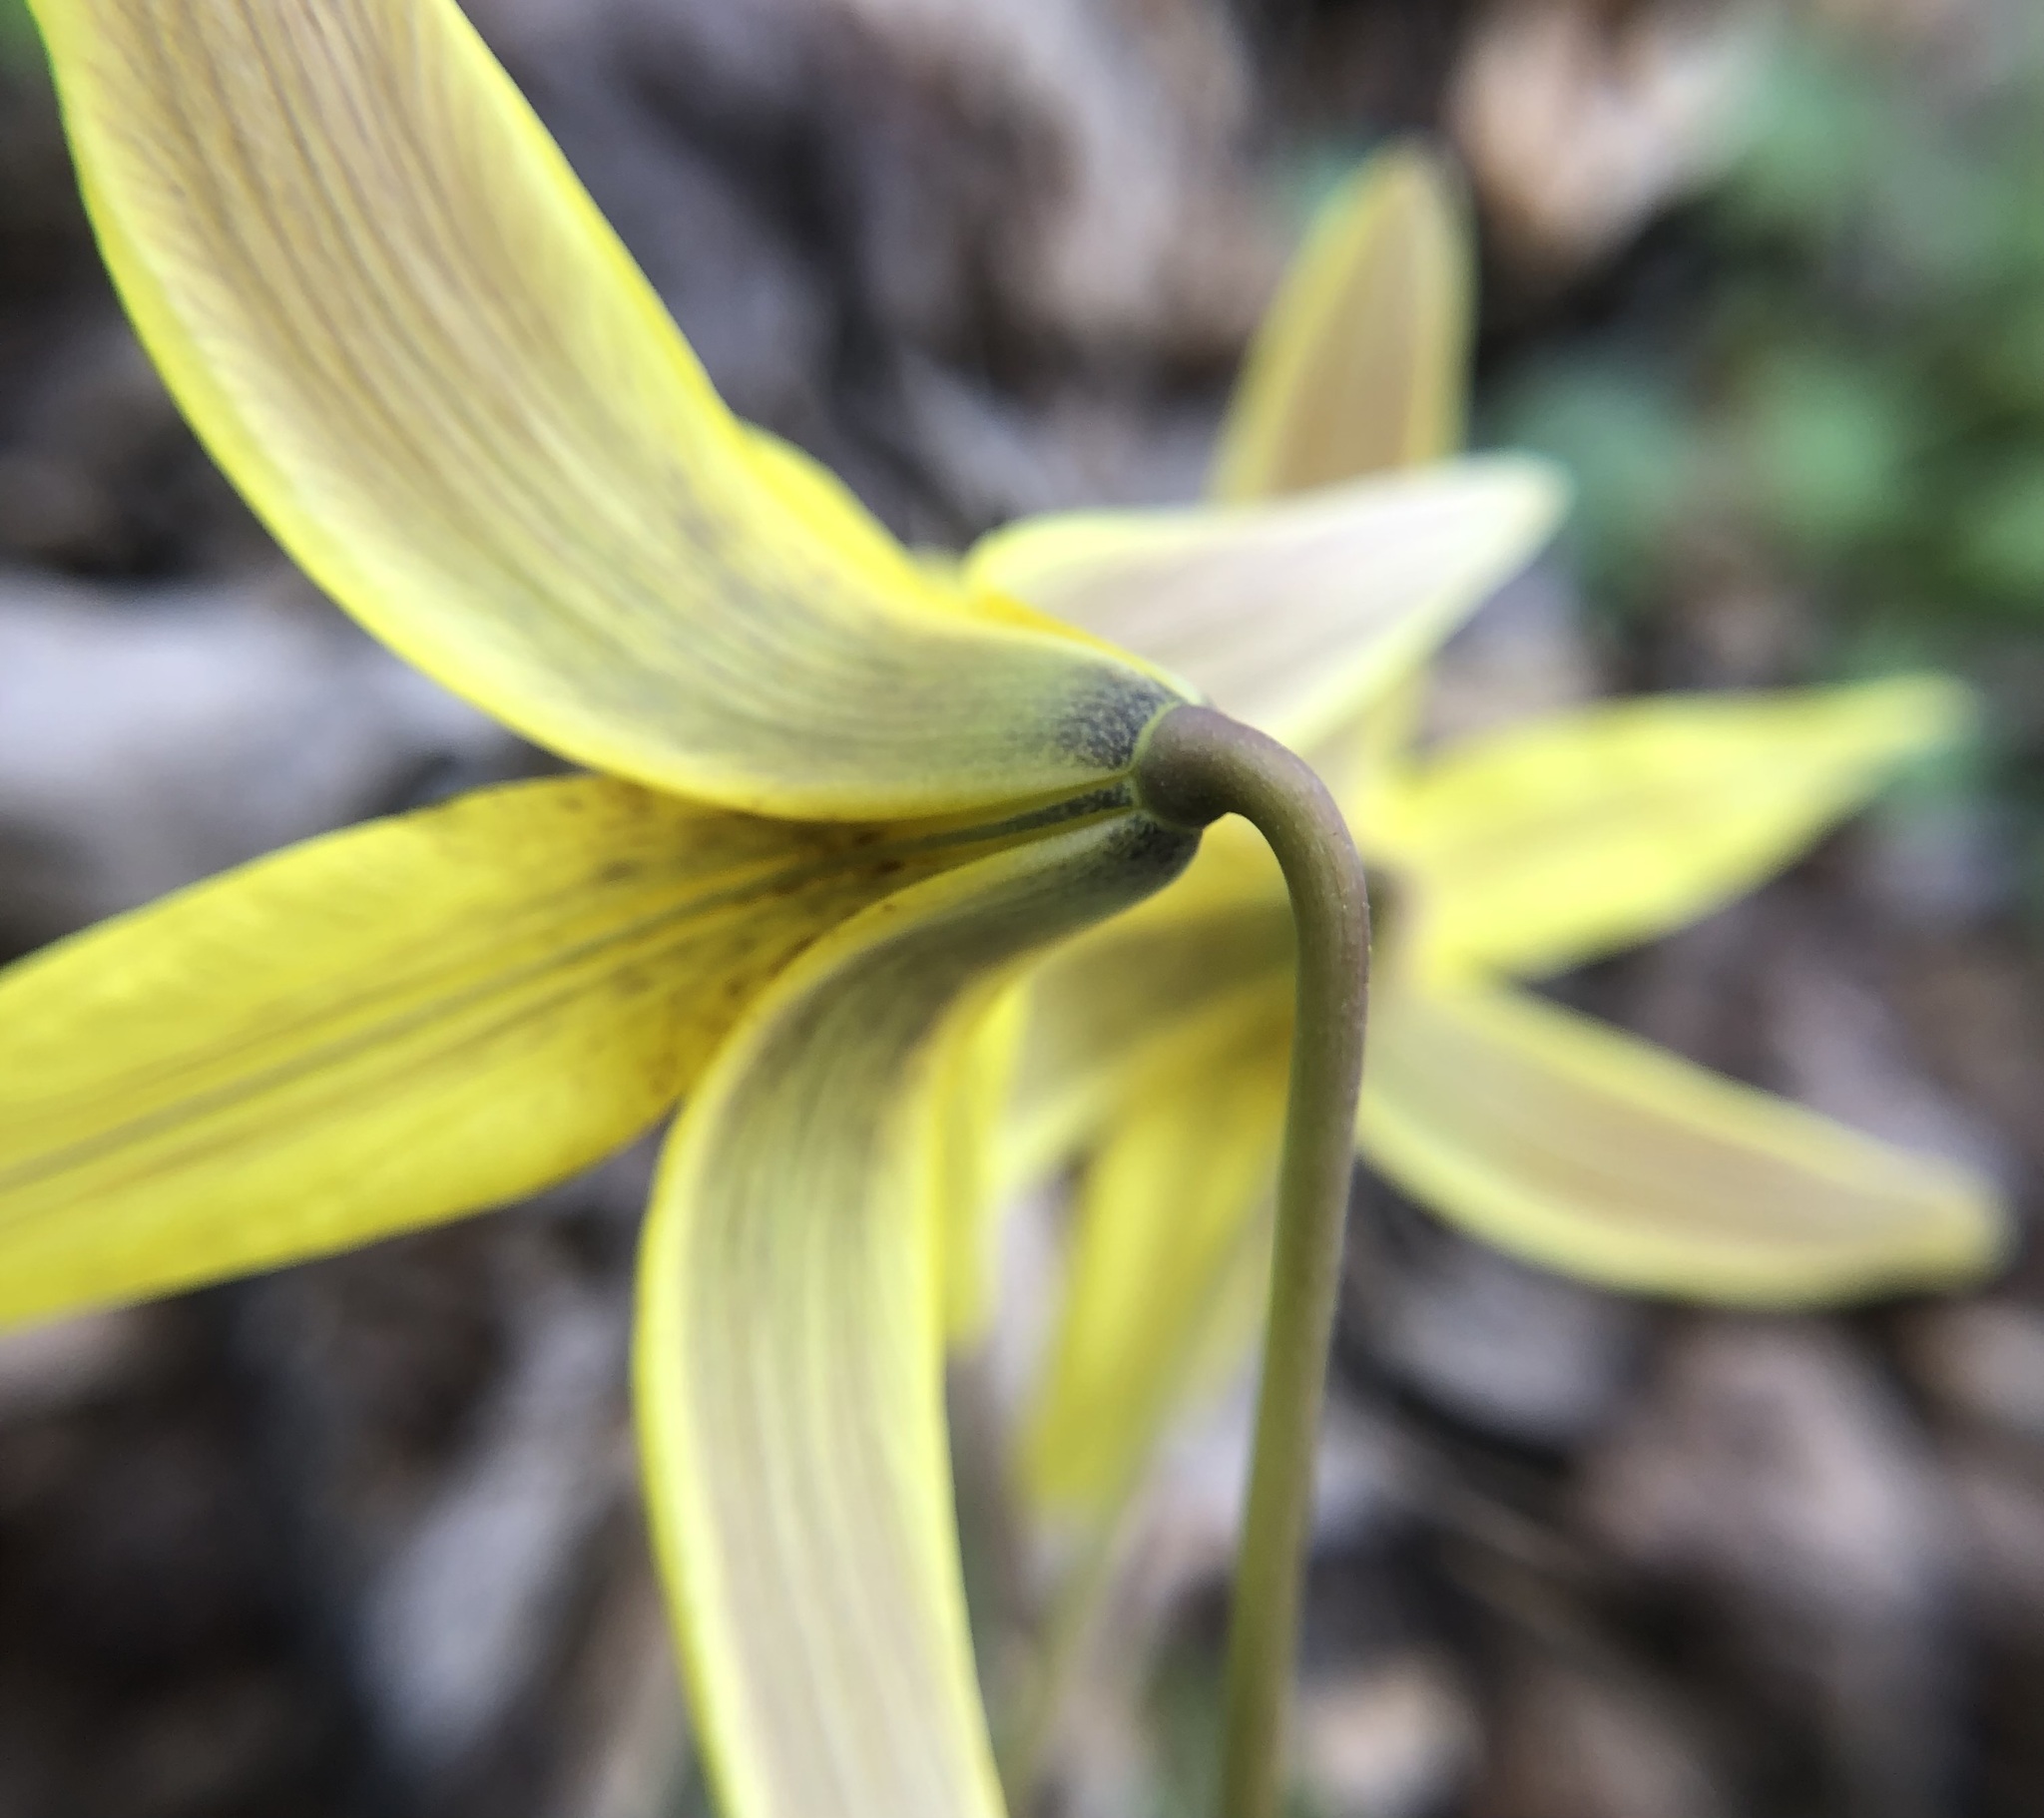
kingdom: Plantae
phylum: Tracheophyta
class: Liliopsida
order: Liliales
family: Liliaceae
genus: Erythronium
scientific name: Erythronium americanum
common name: Yellow adder's-tongue
